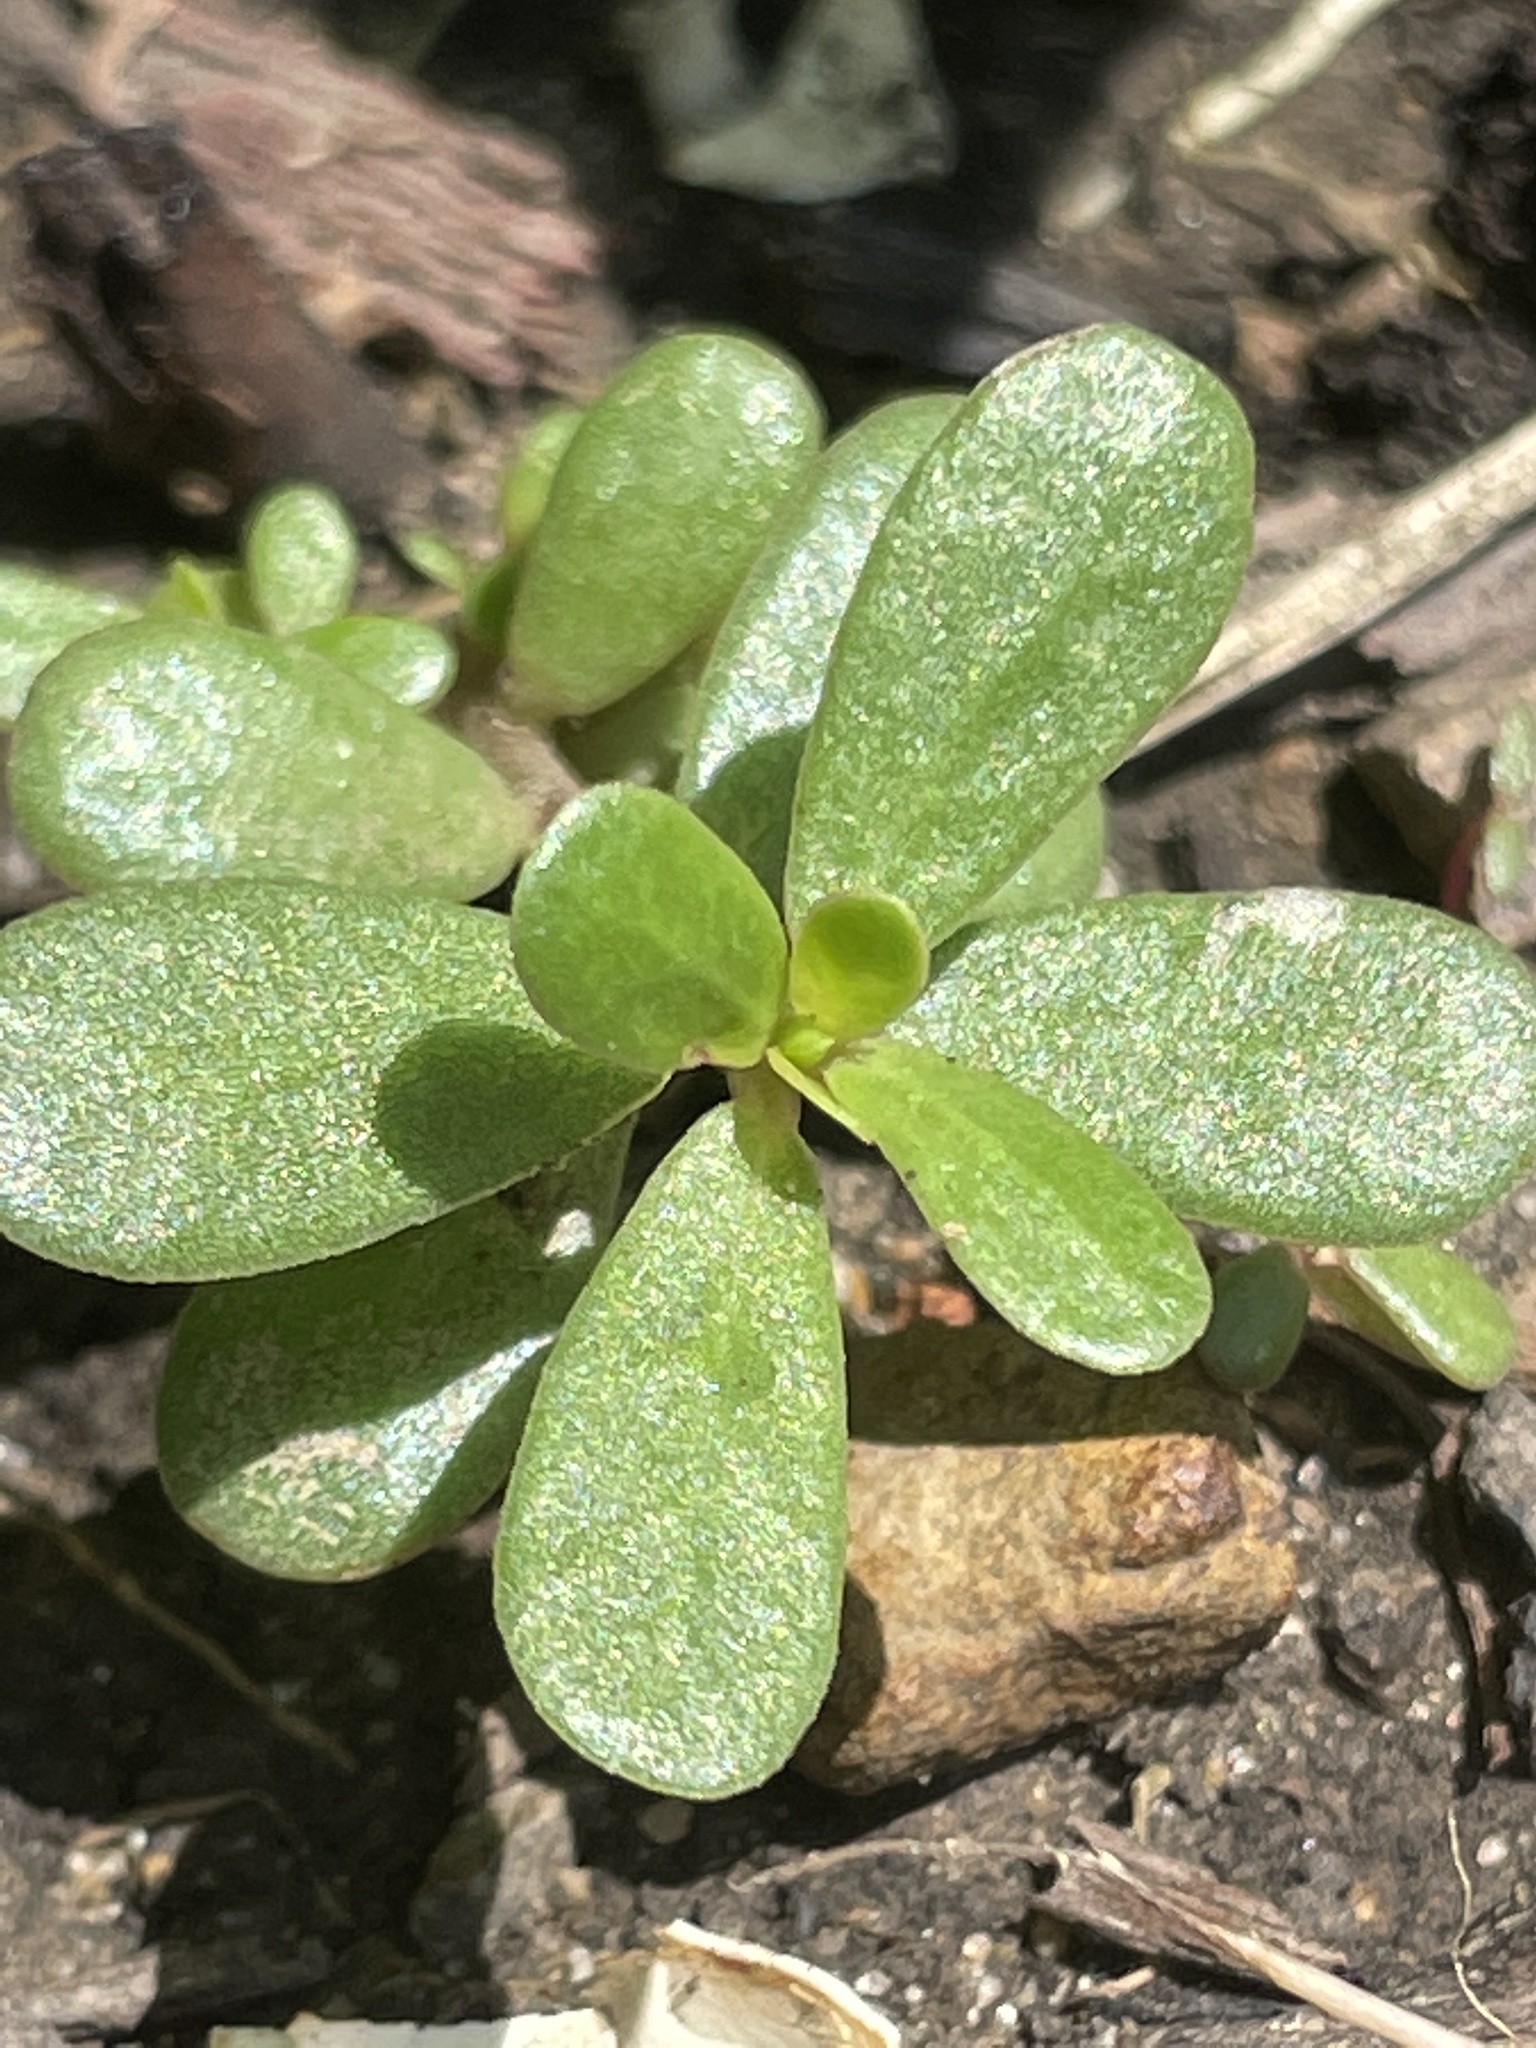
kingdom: Plantae
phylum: Tracheophyta
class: Magnoliopsida
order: Caryophyllales
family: Portulacaceae
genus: Portulaca
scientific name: Portulaca oleracea
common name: Common purslane
